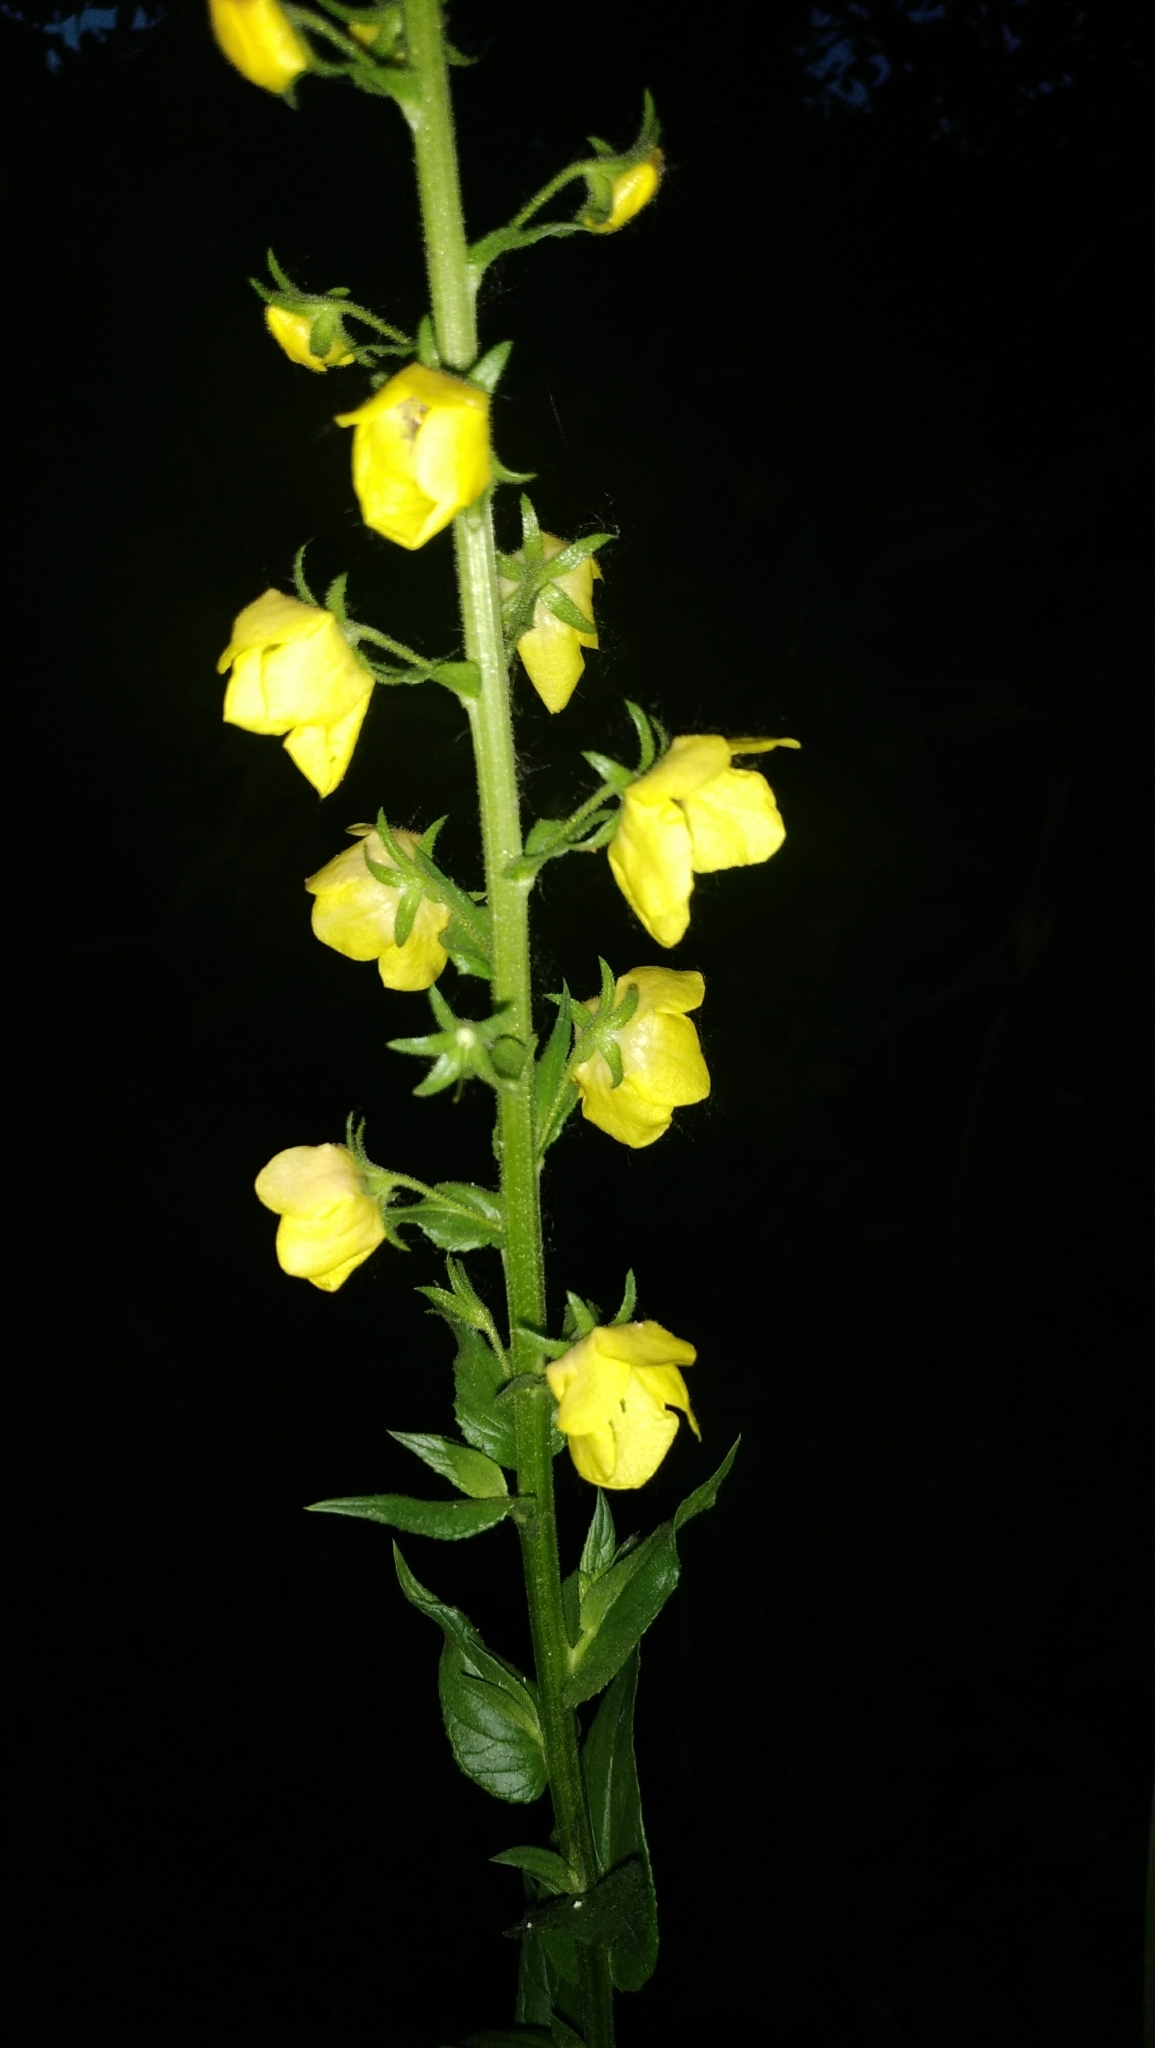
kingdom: Plantae
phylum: Tracheophyta
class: Magnoliopsida
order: Lamiales
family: Scrophulariaceae
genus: Verbascum
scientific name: Verbascum blattaria
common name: Moth mullein
